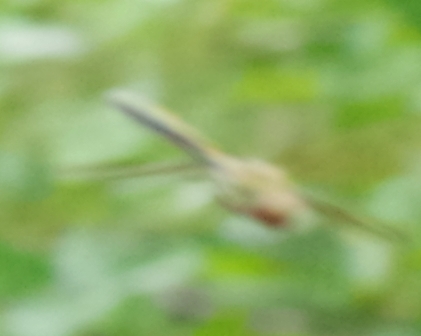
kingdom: Animalia
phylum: Arthropoda
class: Insecta
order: Odonata
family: Corduliidae
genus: Oxygastra
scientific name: Oxygastra curtisii
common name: Orange-spotted emerald
